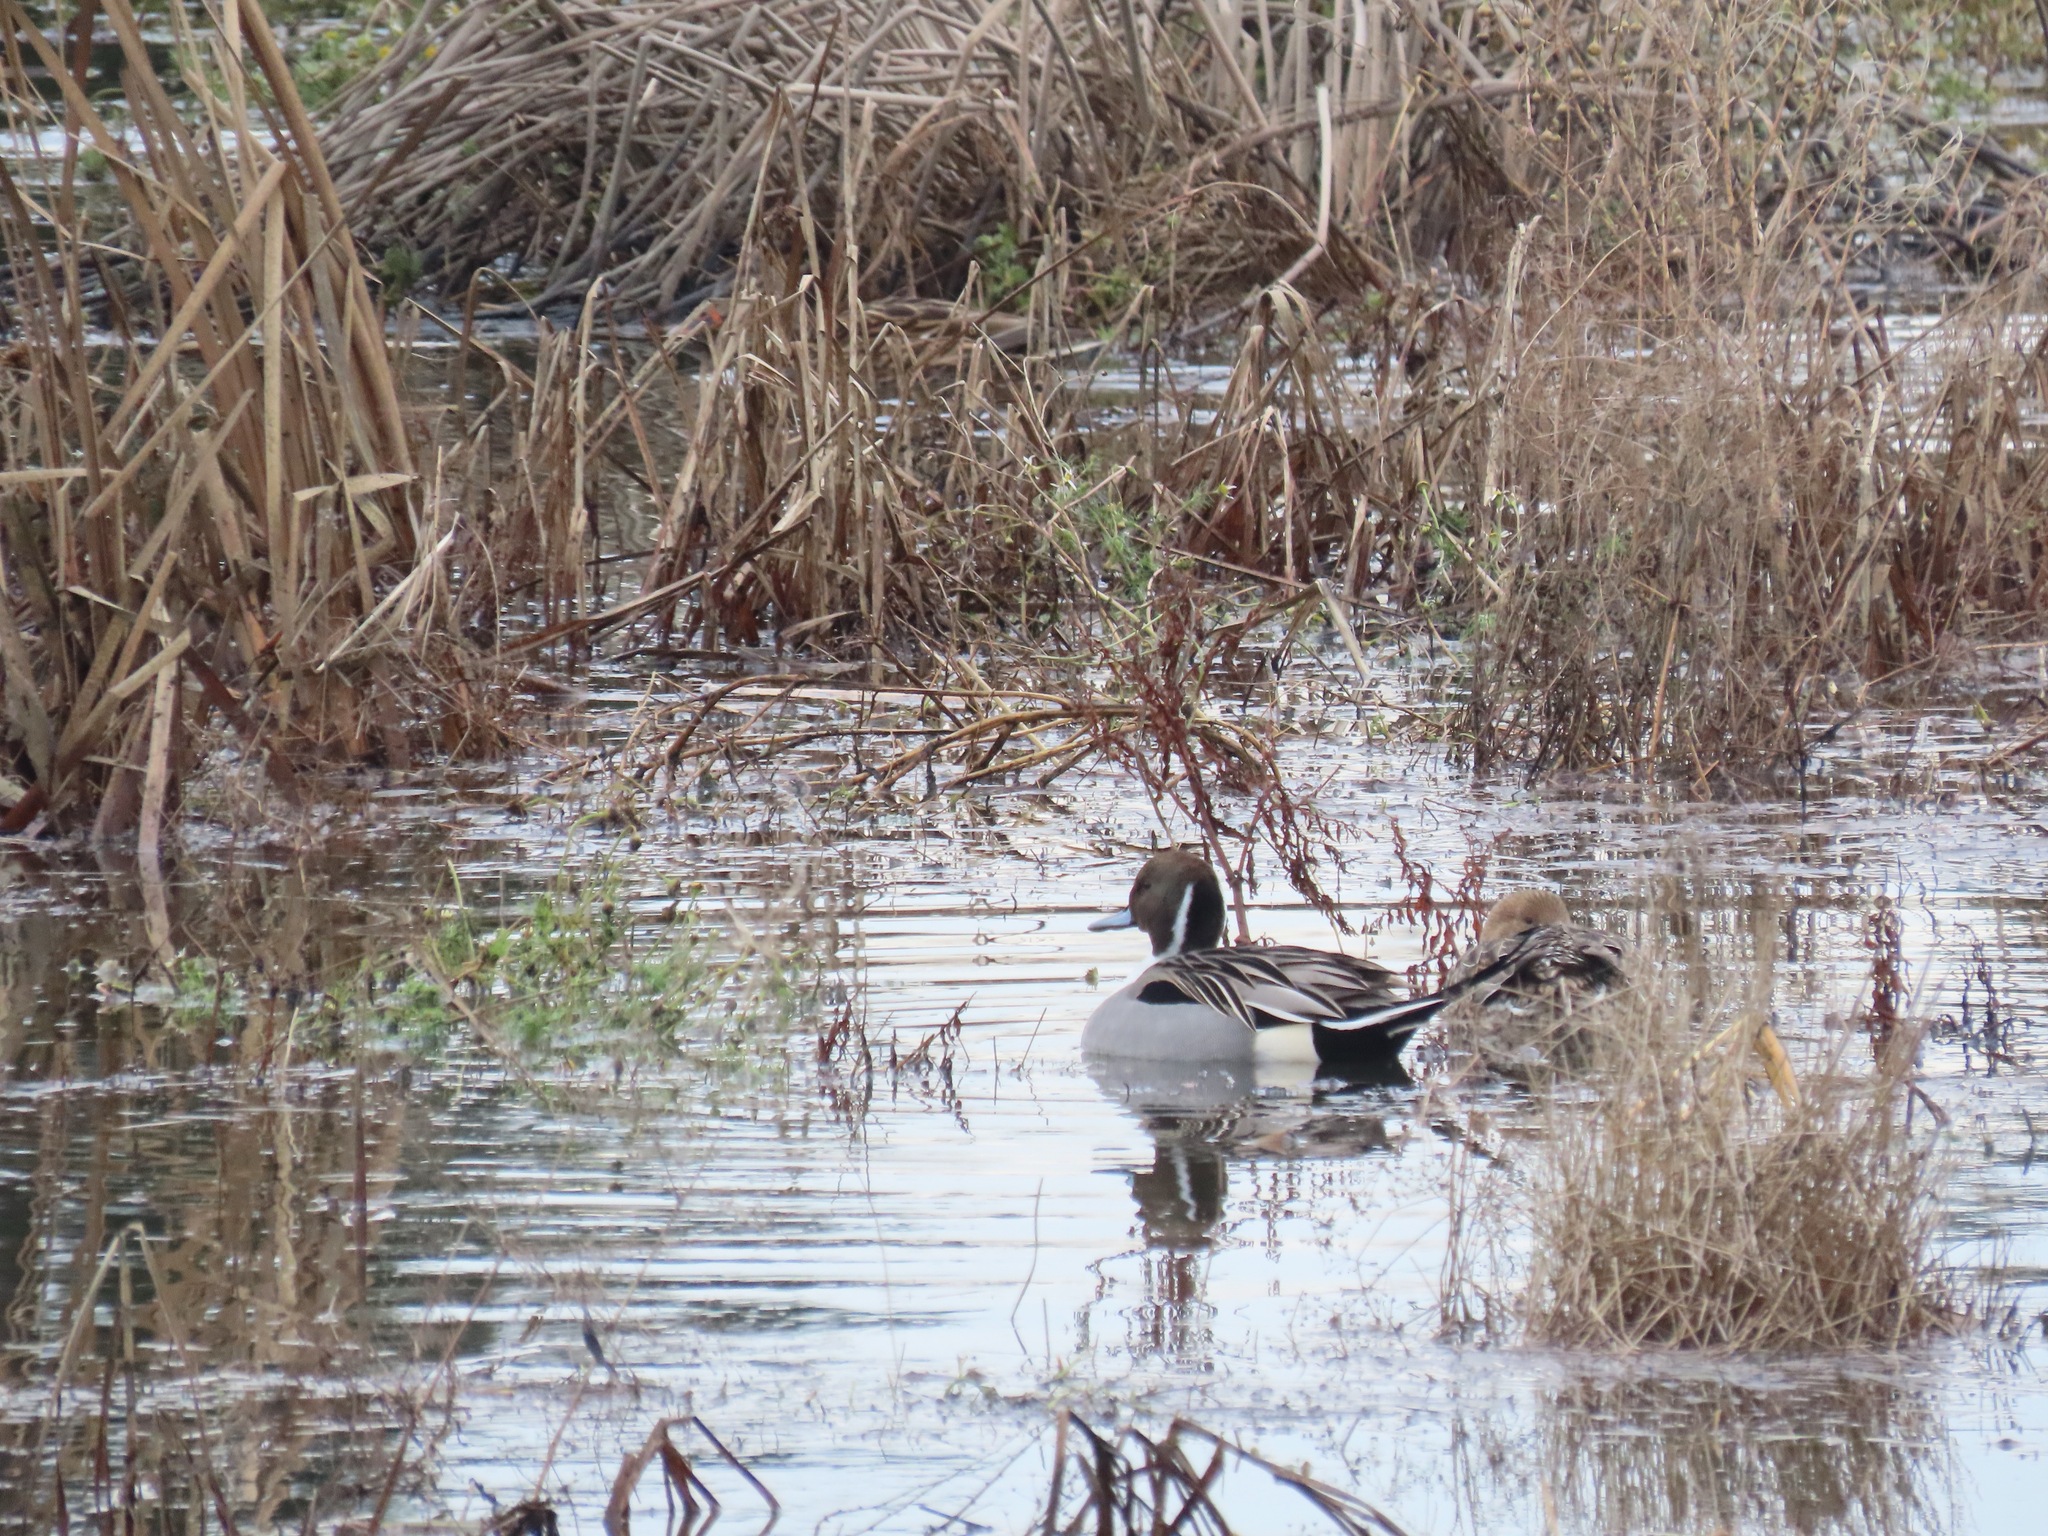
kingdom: Animalia
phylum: Chordata
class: Aves
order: Anseriformes
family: Anatidae
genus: Anas
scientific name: Anas acuta
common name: Northern pintail
